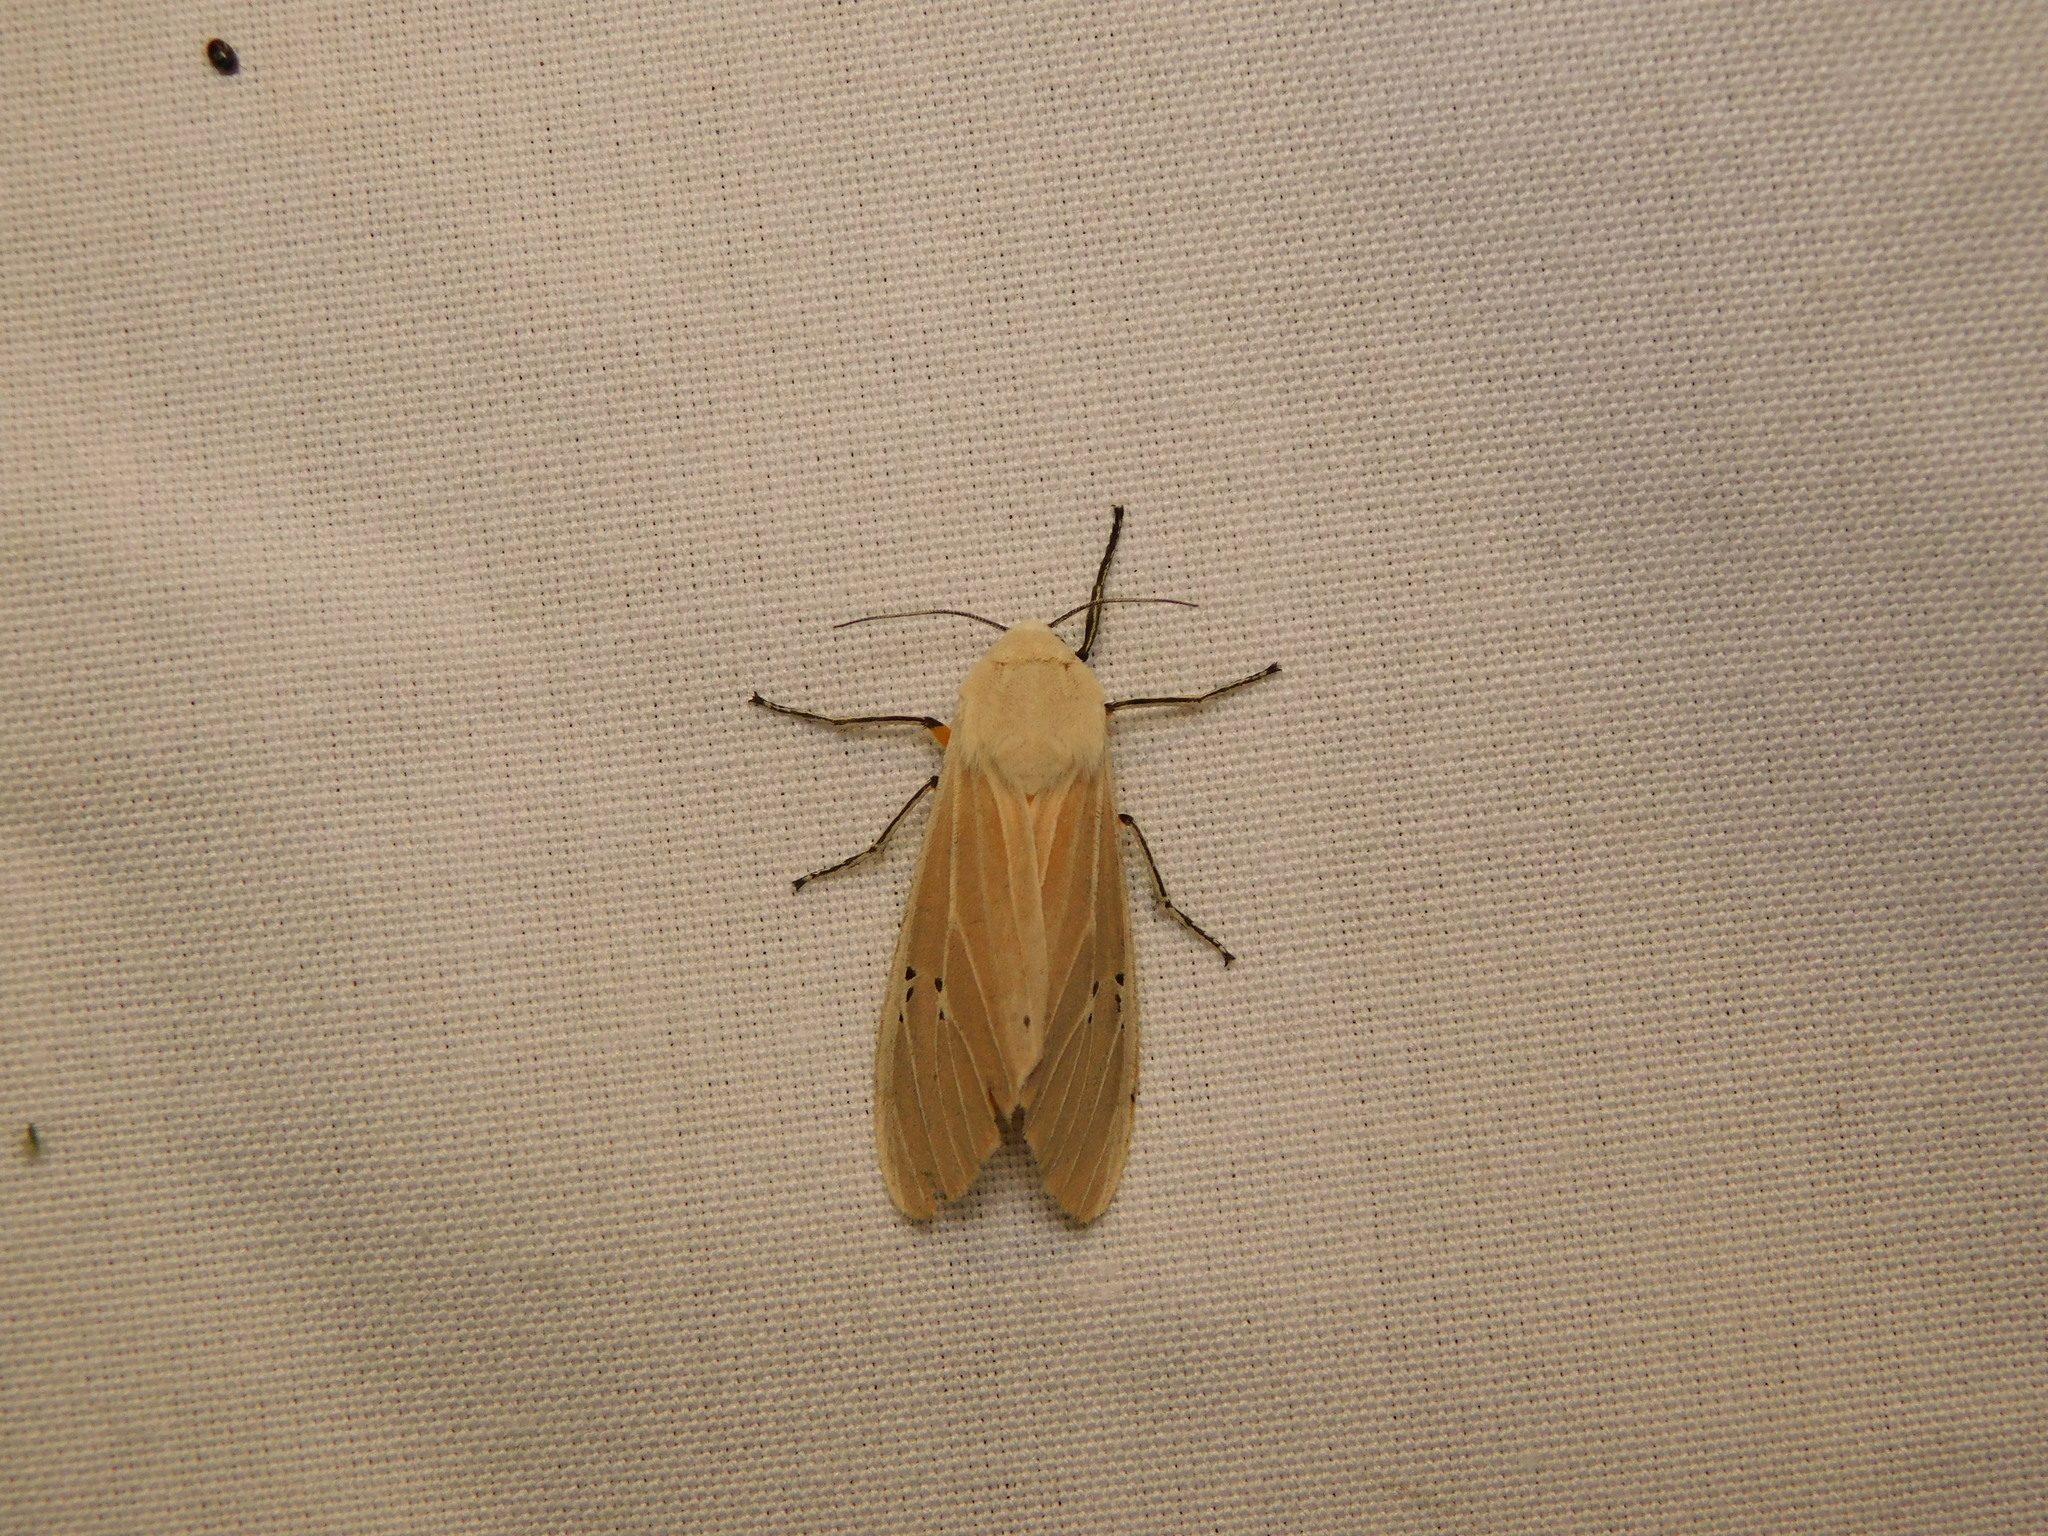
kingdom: Animalia
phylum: Arthropoda
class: Insecta
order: Lepidoptera
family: Erebidae
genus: Creatonotos
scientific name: Creatonotos transiens
